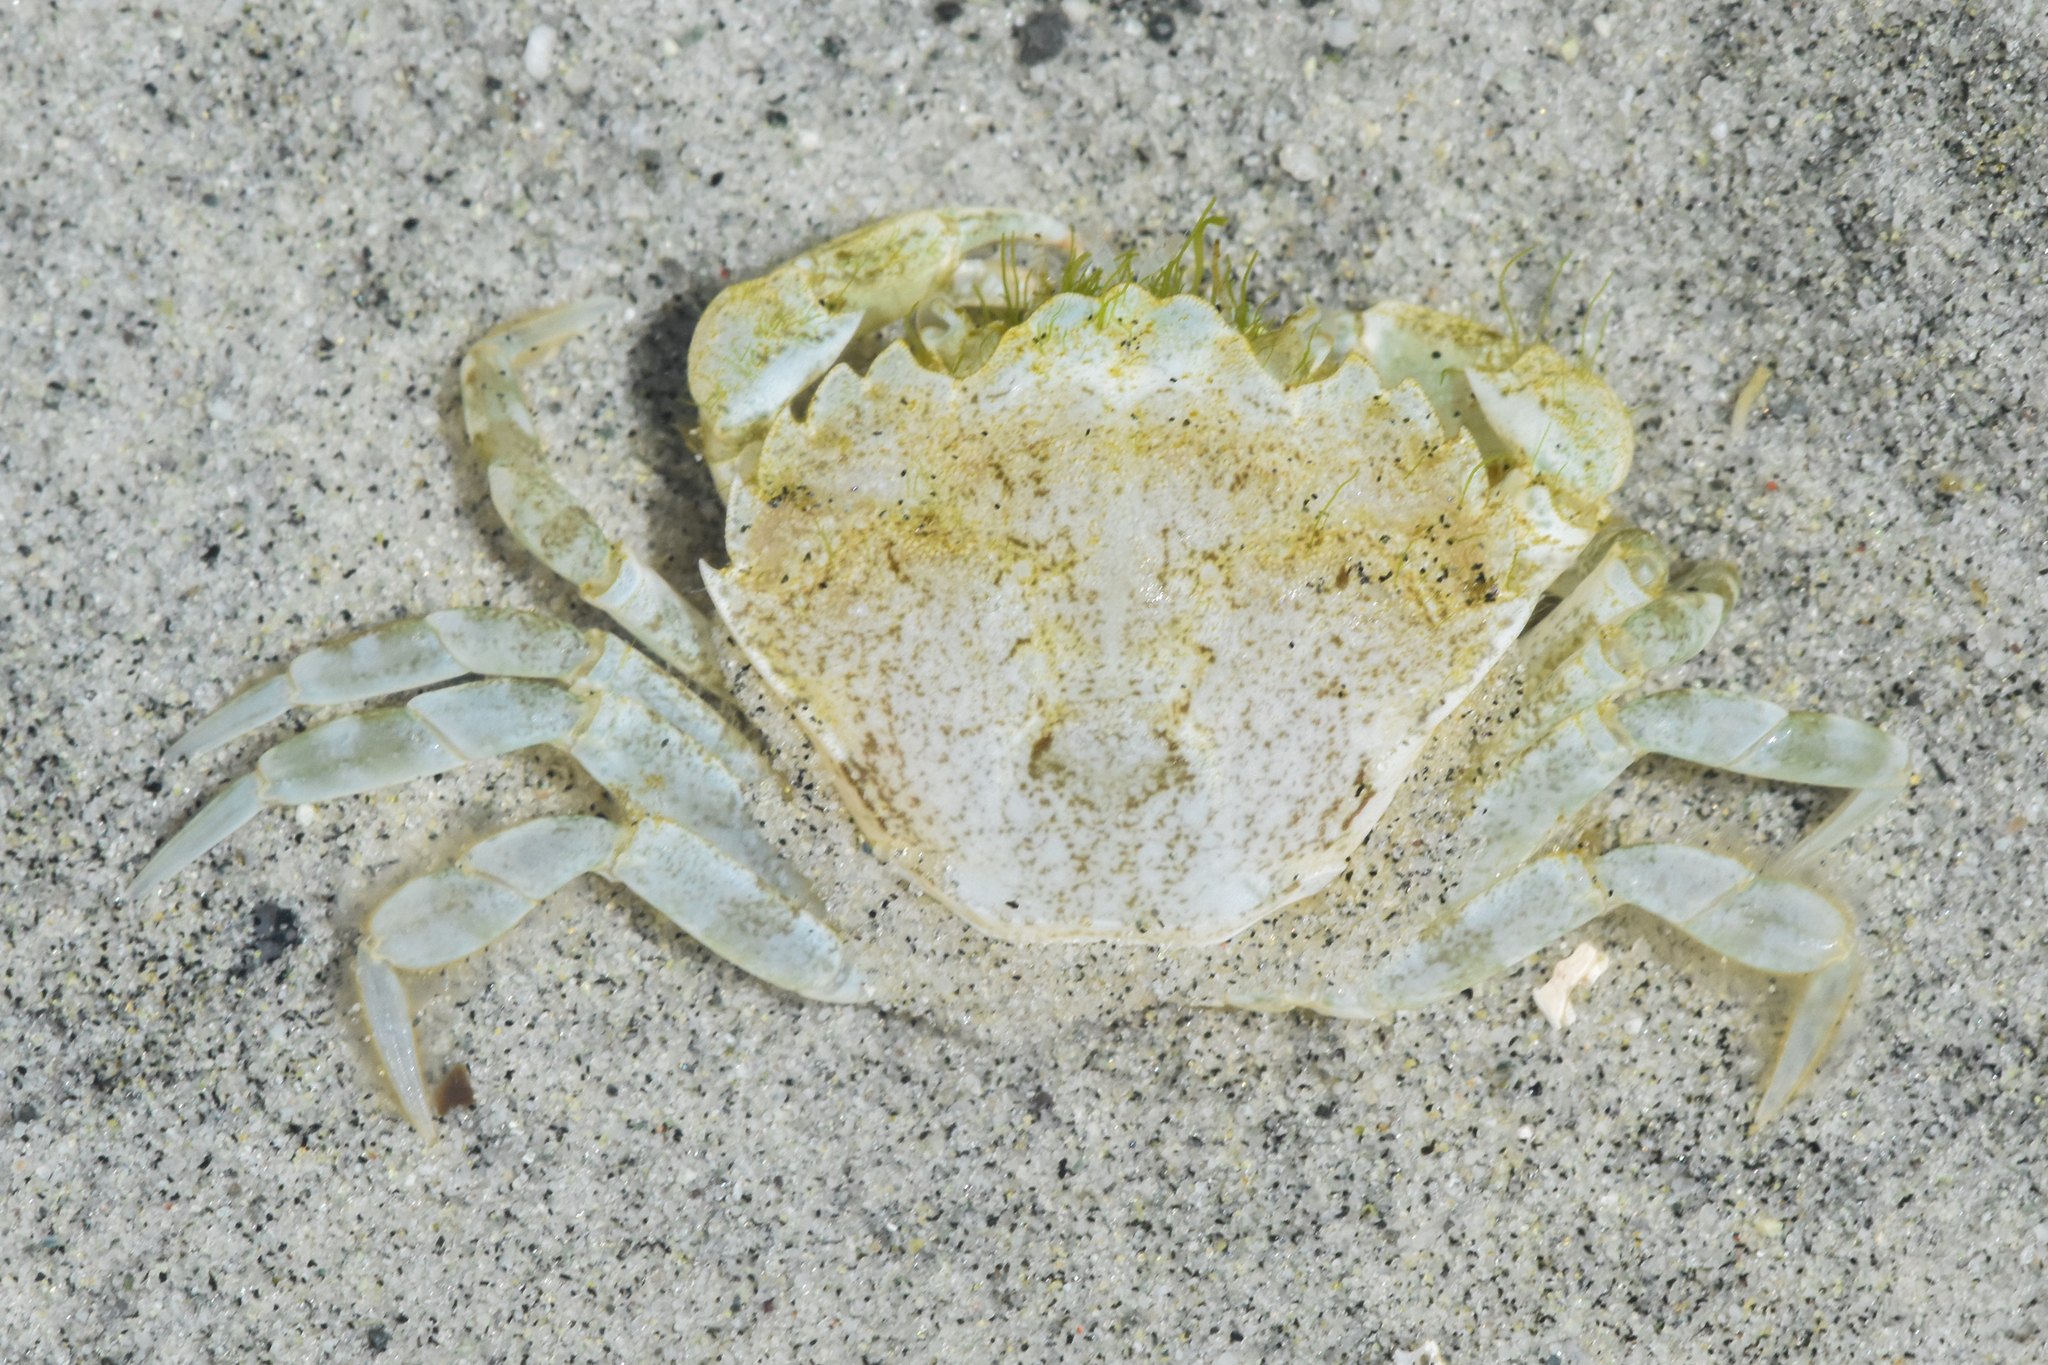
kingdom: Animalia
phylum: Arthropoda
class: Malacostraca
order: Decapoda
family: Carcinidae
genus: Carcinus
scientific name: Carcinus maenas
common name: European green crab
